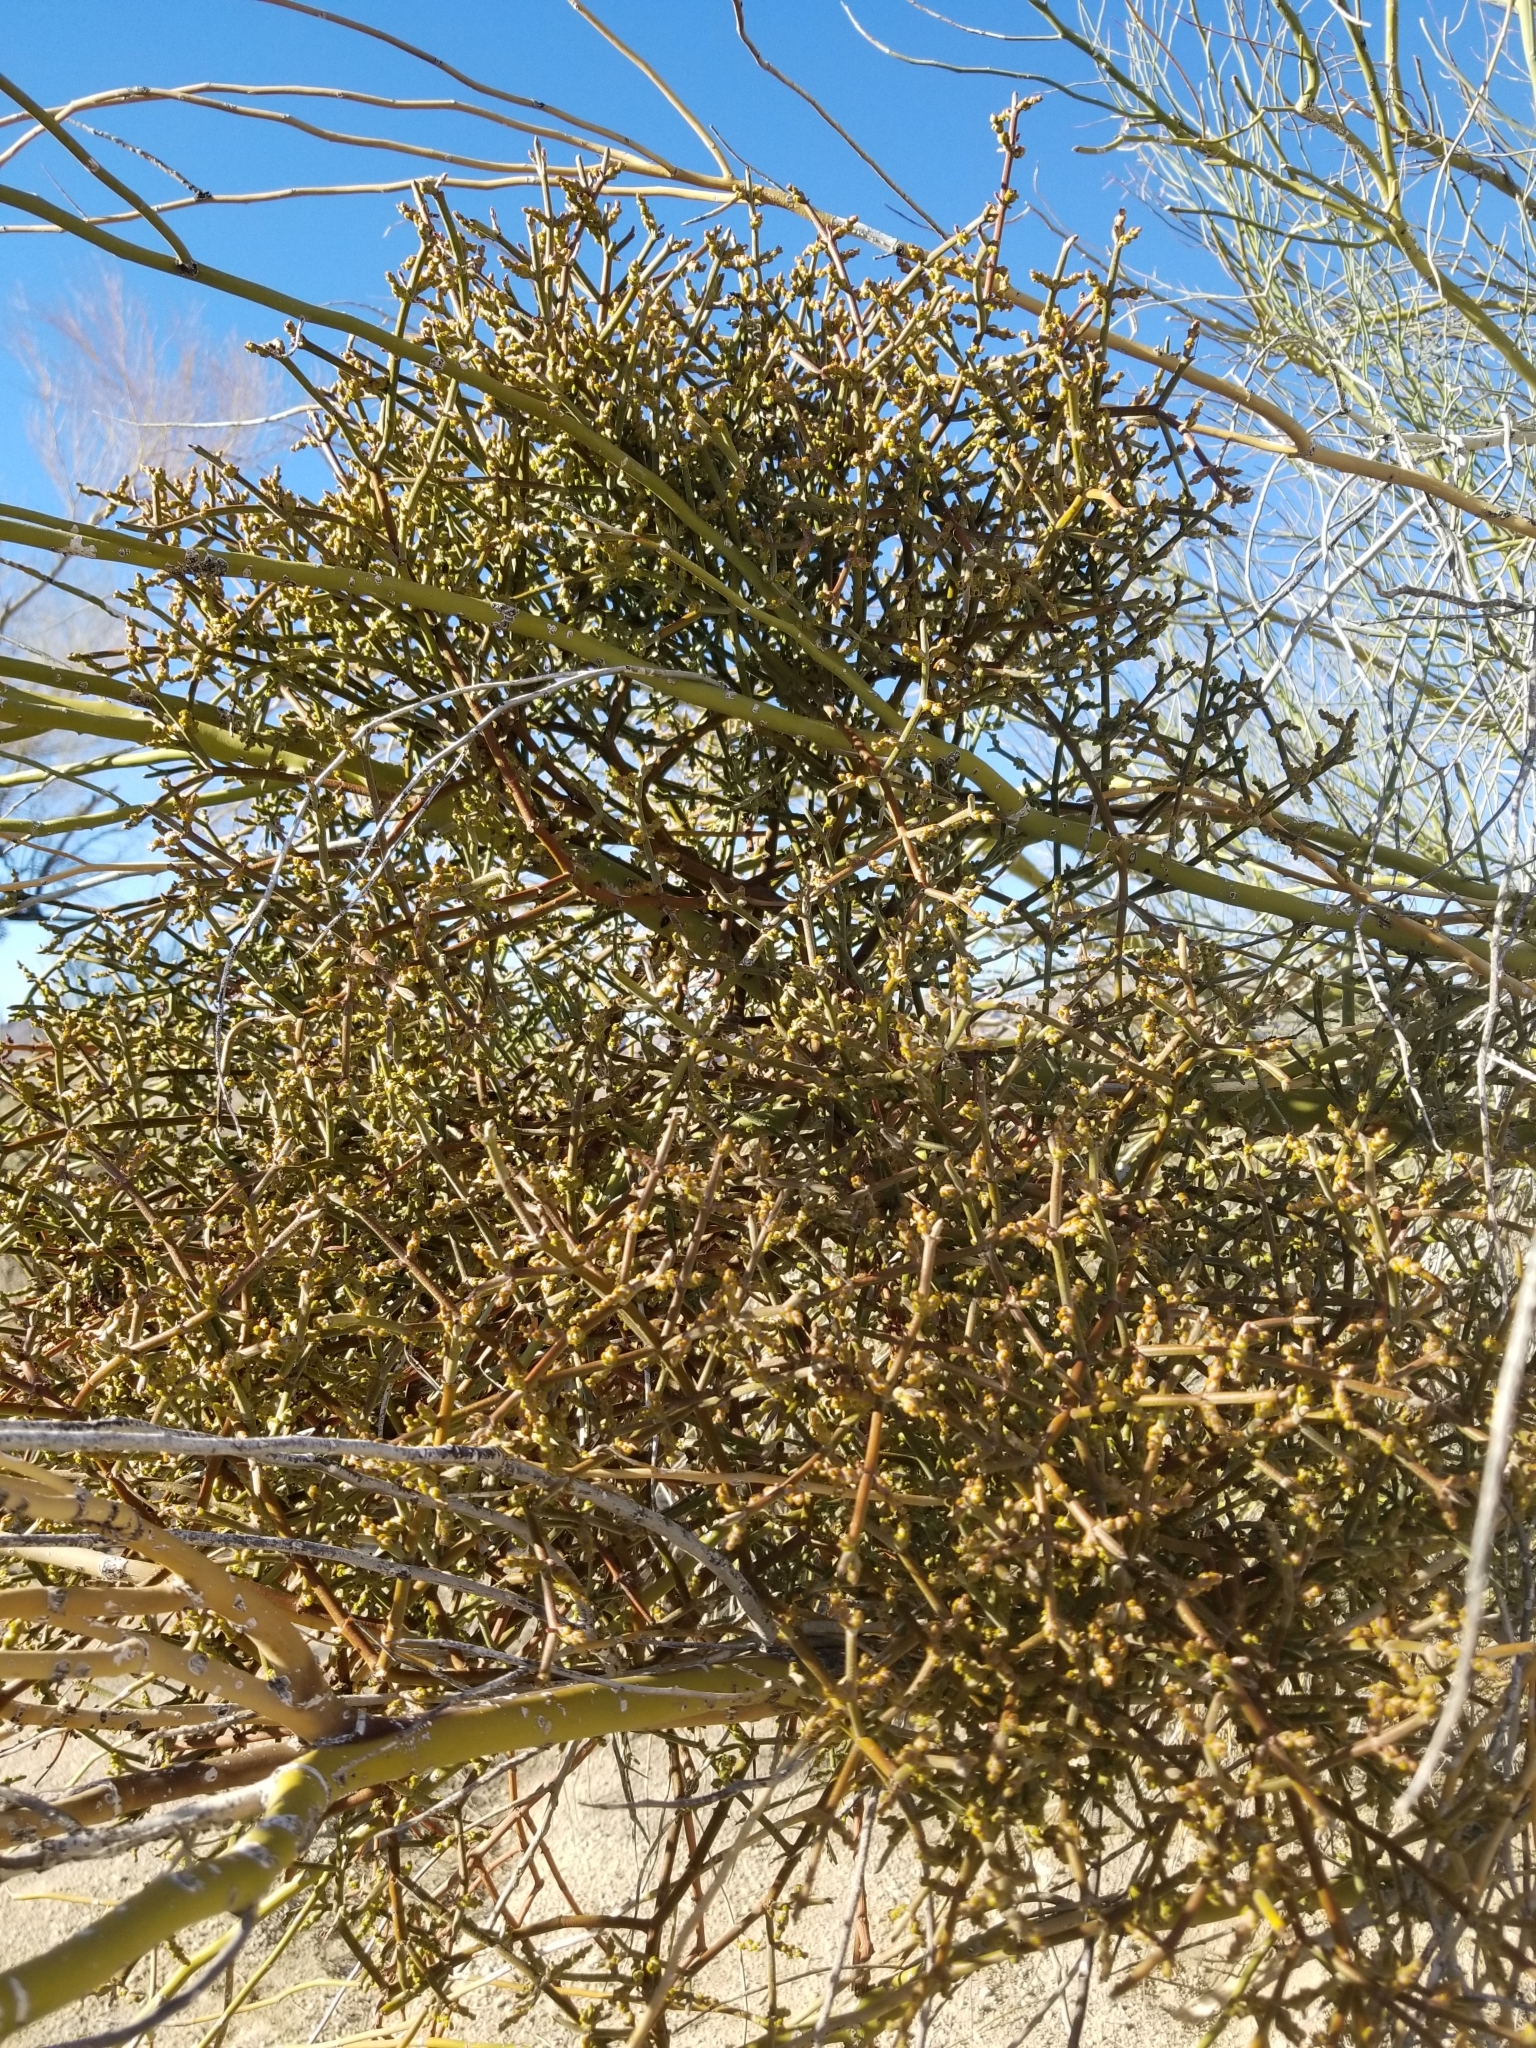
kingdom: Plantae
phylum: Tracheophyta
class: Magnoliopsida
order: Santalales
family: Viscaceae
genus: Phoradendron
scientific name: Phoradendron californicum
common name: Acacia mistletoe
